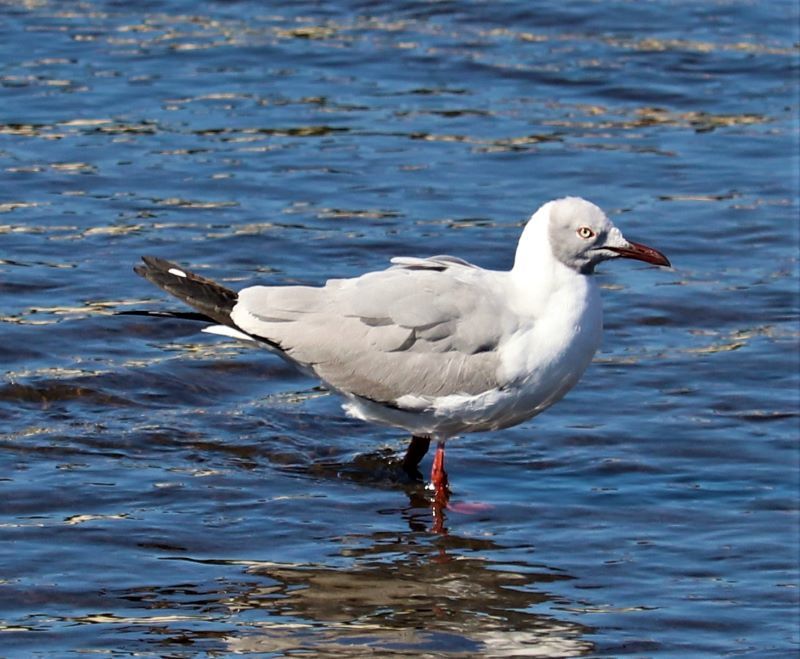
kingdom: Animalia
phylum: Chordata
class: Aves
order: Charadriiformes
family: Laridae
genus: Chroicocephalus
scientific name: Chroicocephalus cirrocephalus
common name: Grey-headed gull
